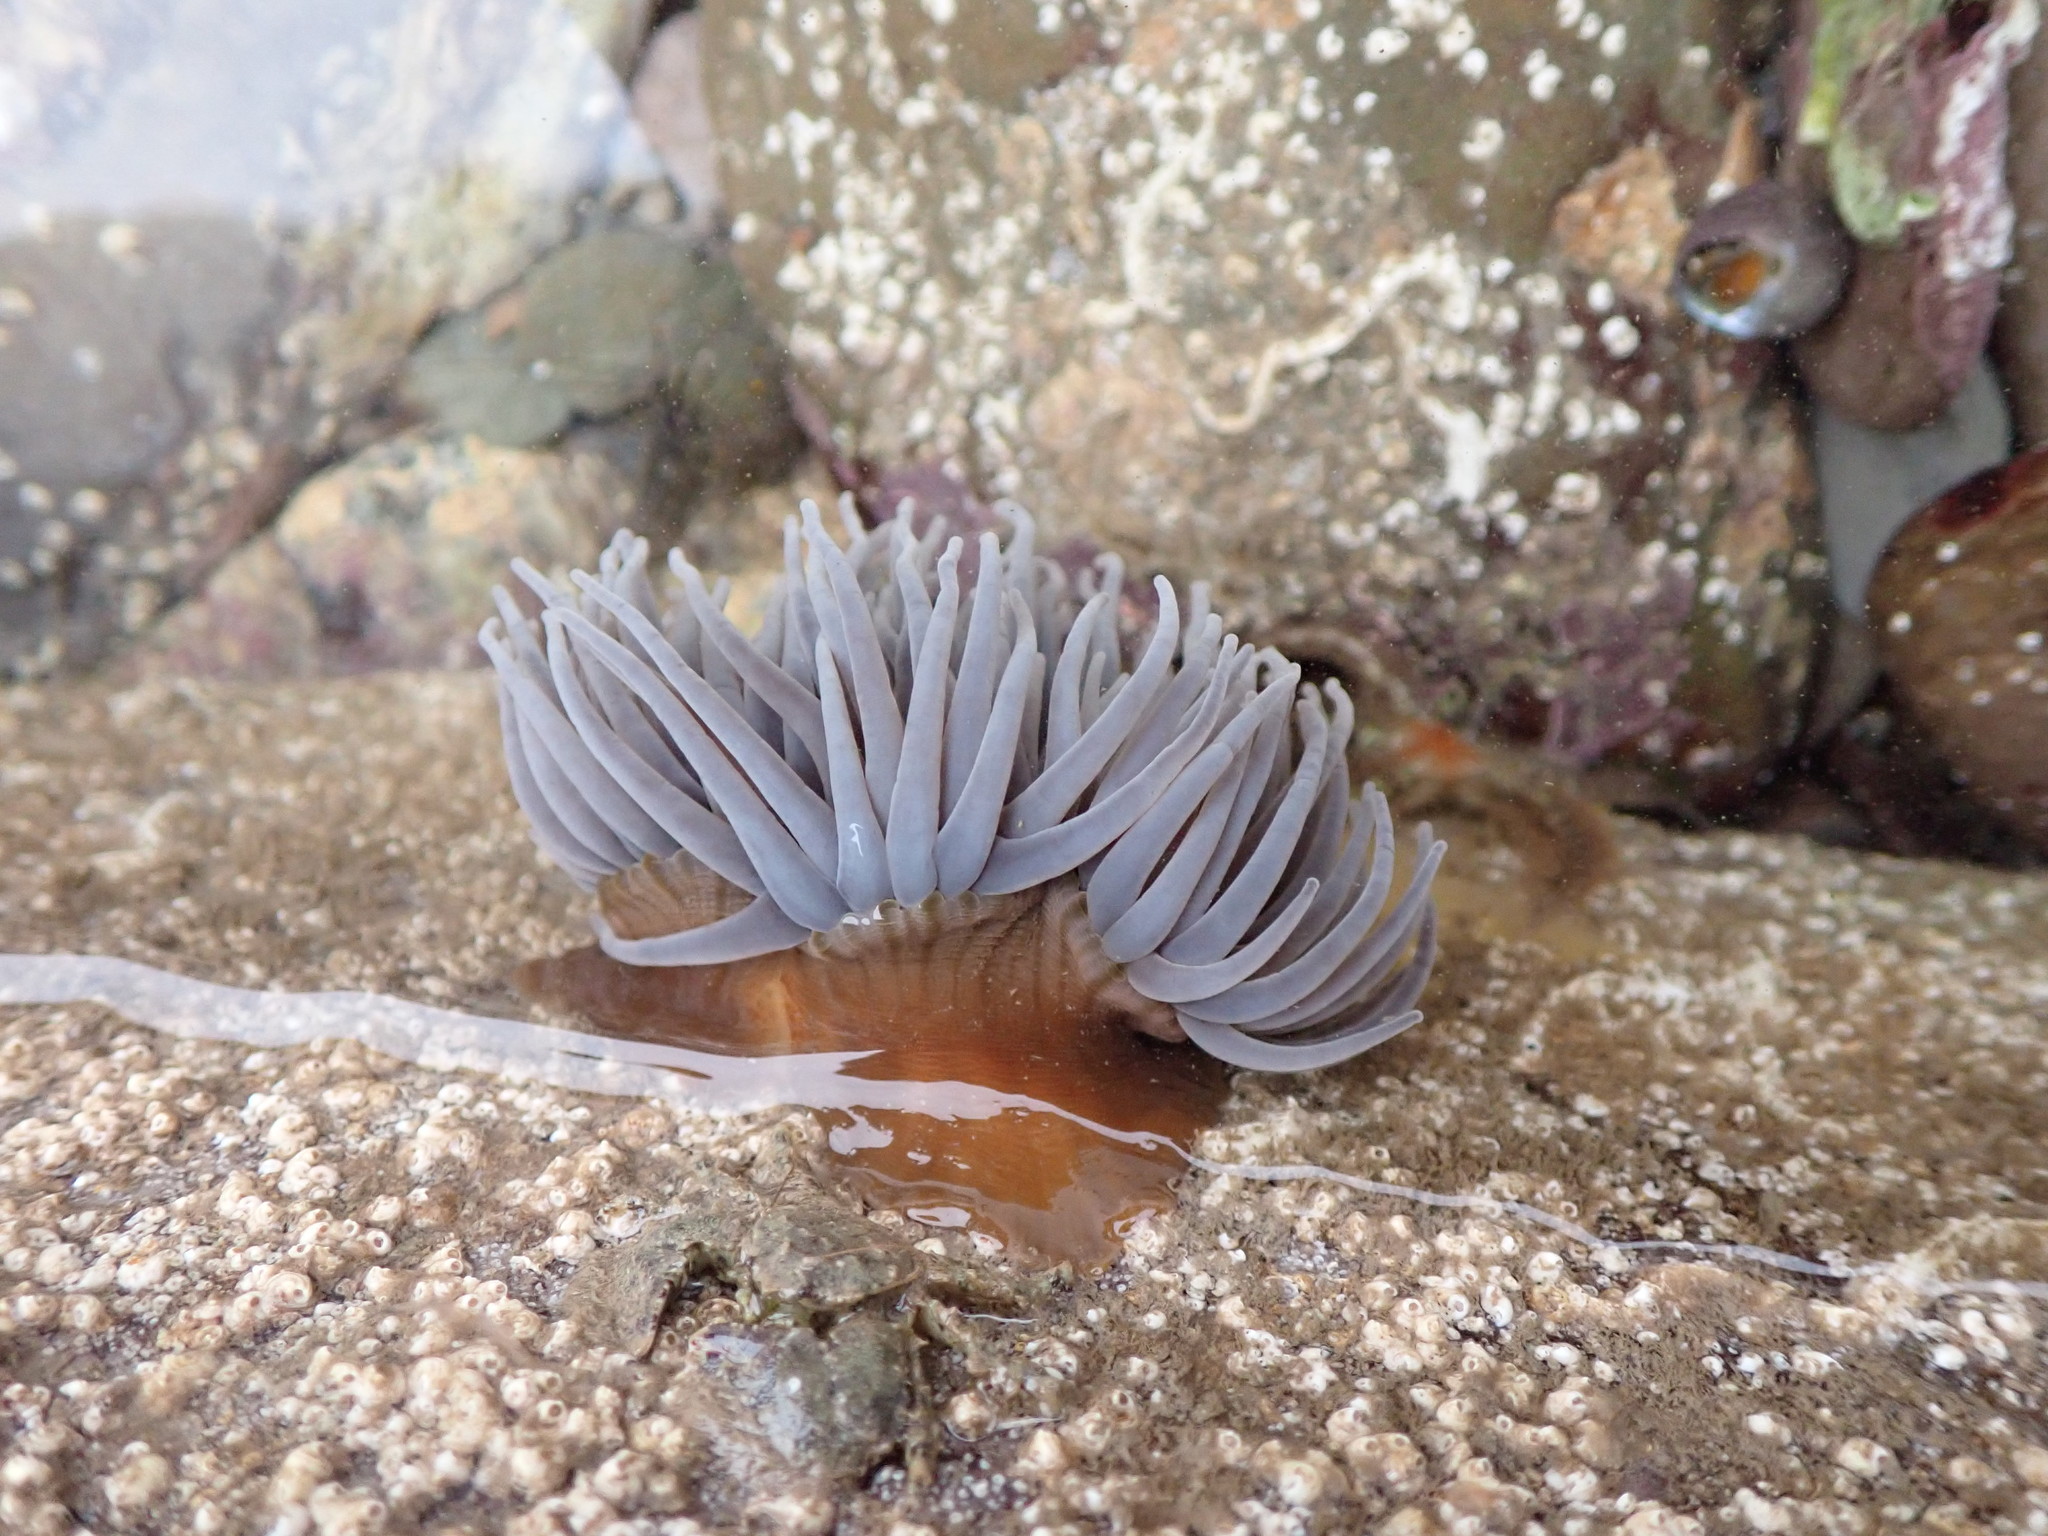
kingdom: Animalia
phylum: Cnidaria
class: Anthozoa
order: Actiniaria
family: Actiniidae
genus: Anemonia
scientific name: Anemonia viridis
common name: Snakelocks anemone
